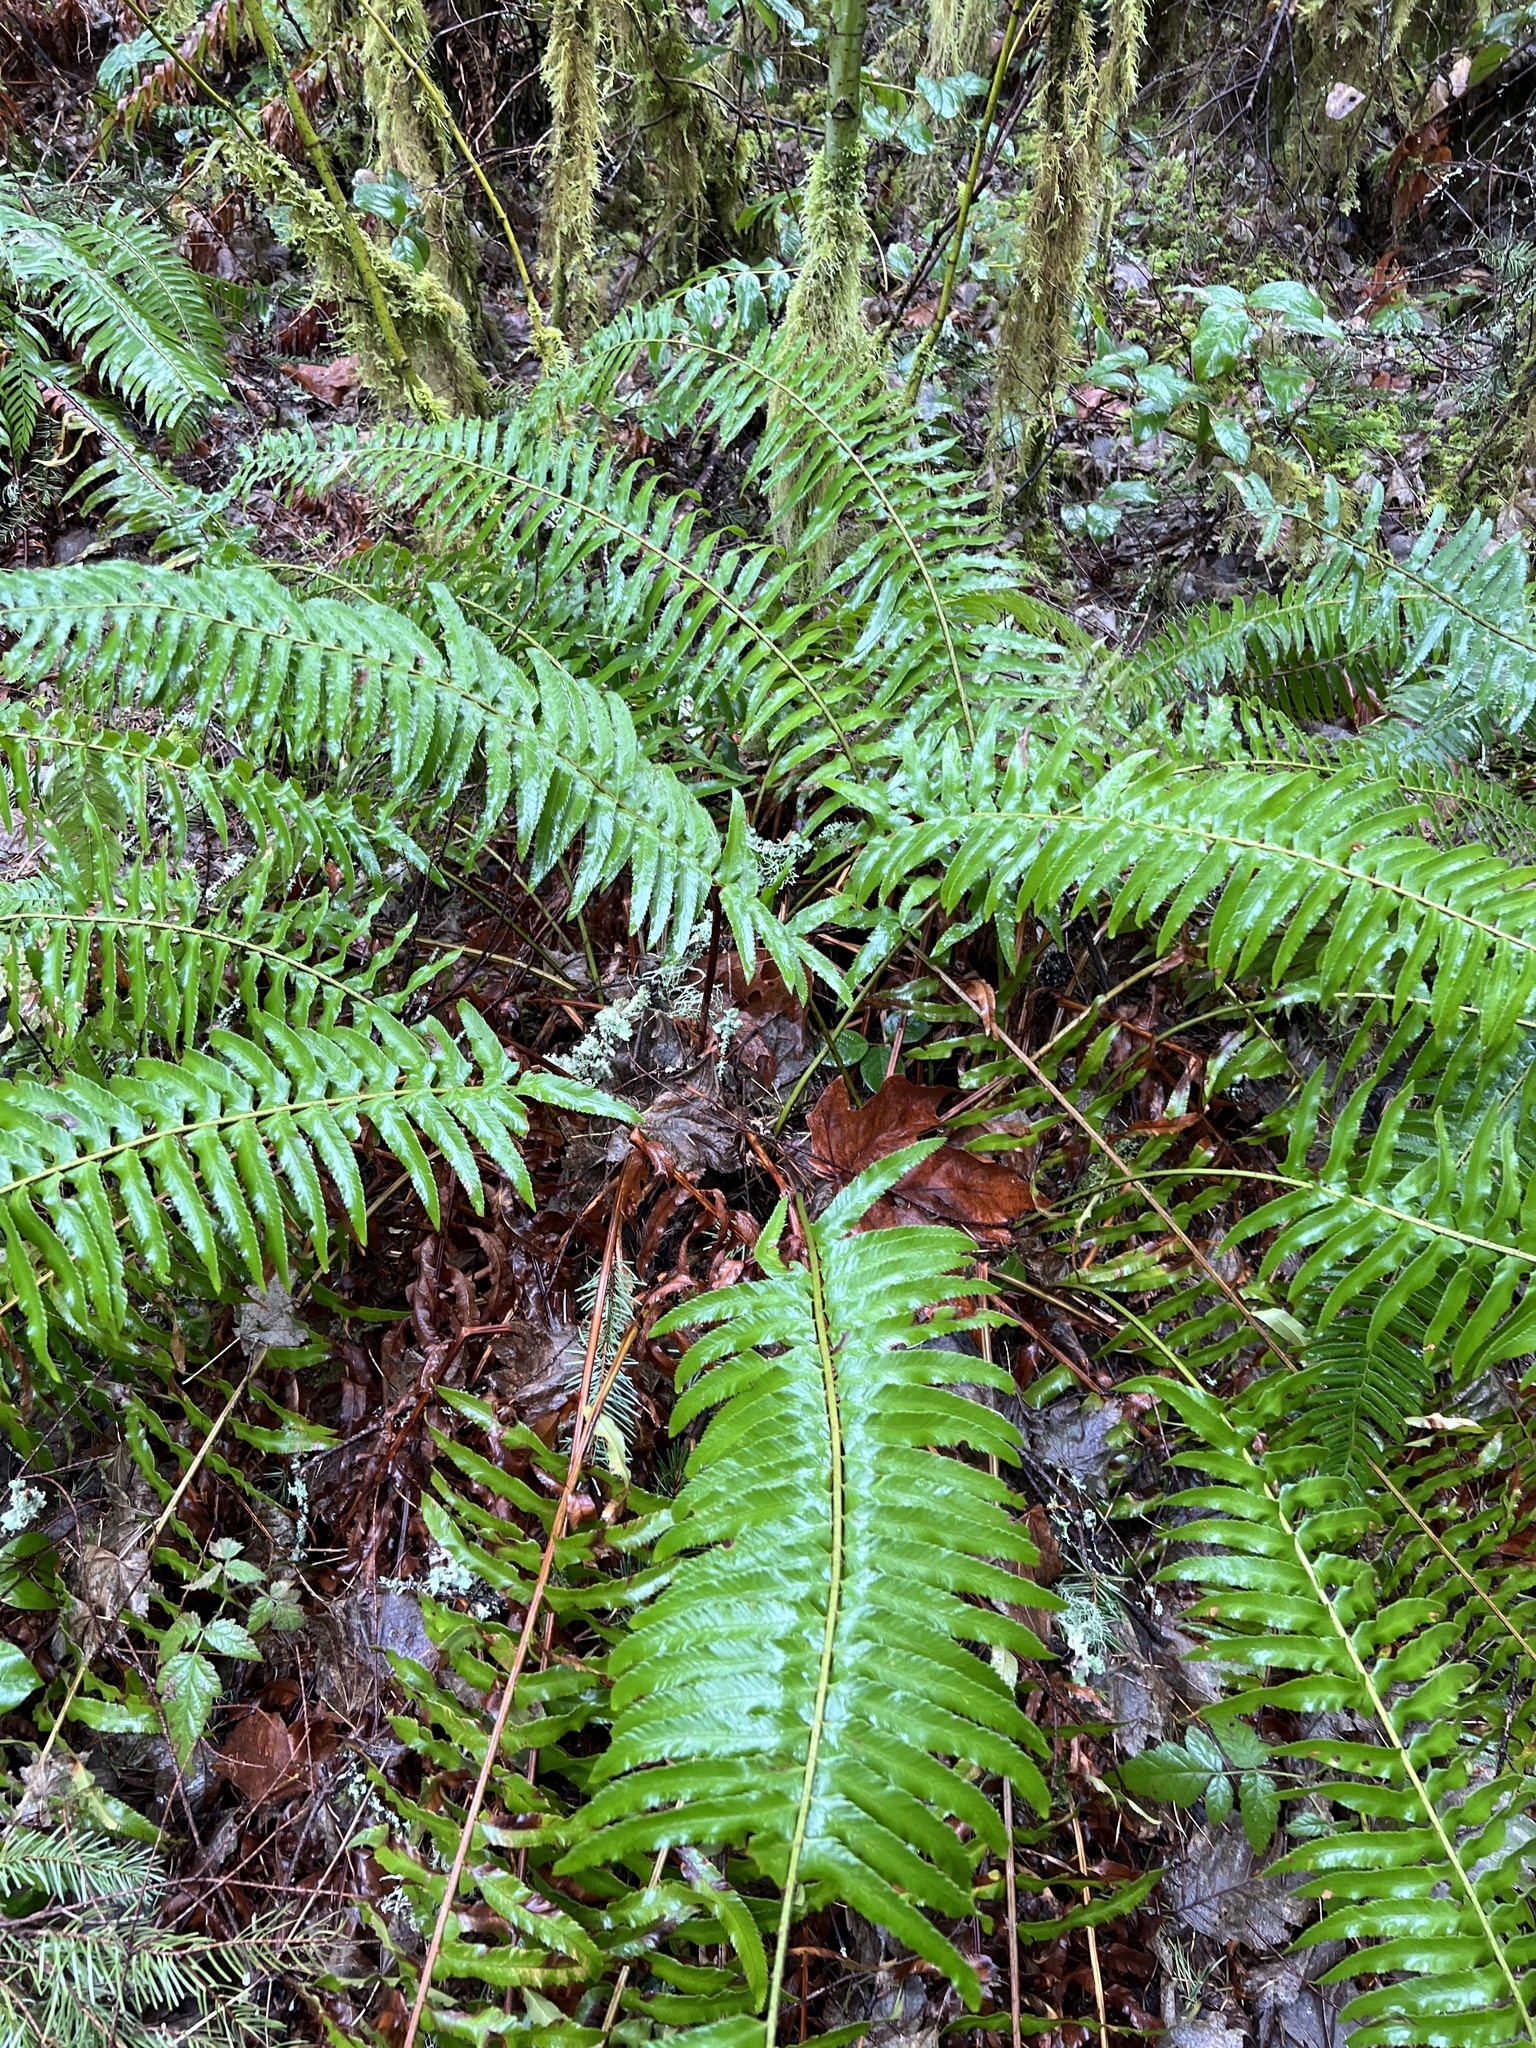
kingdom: Plantae
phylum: Tracheophyta
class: Polypodiopsida
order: Polypodiales
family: Dryopteridaceae
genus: Polystichum
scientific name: Polystichum munitum
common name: Western sword-fern
